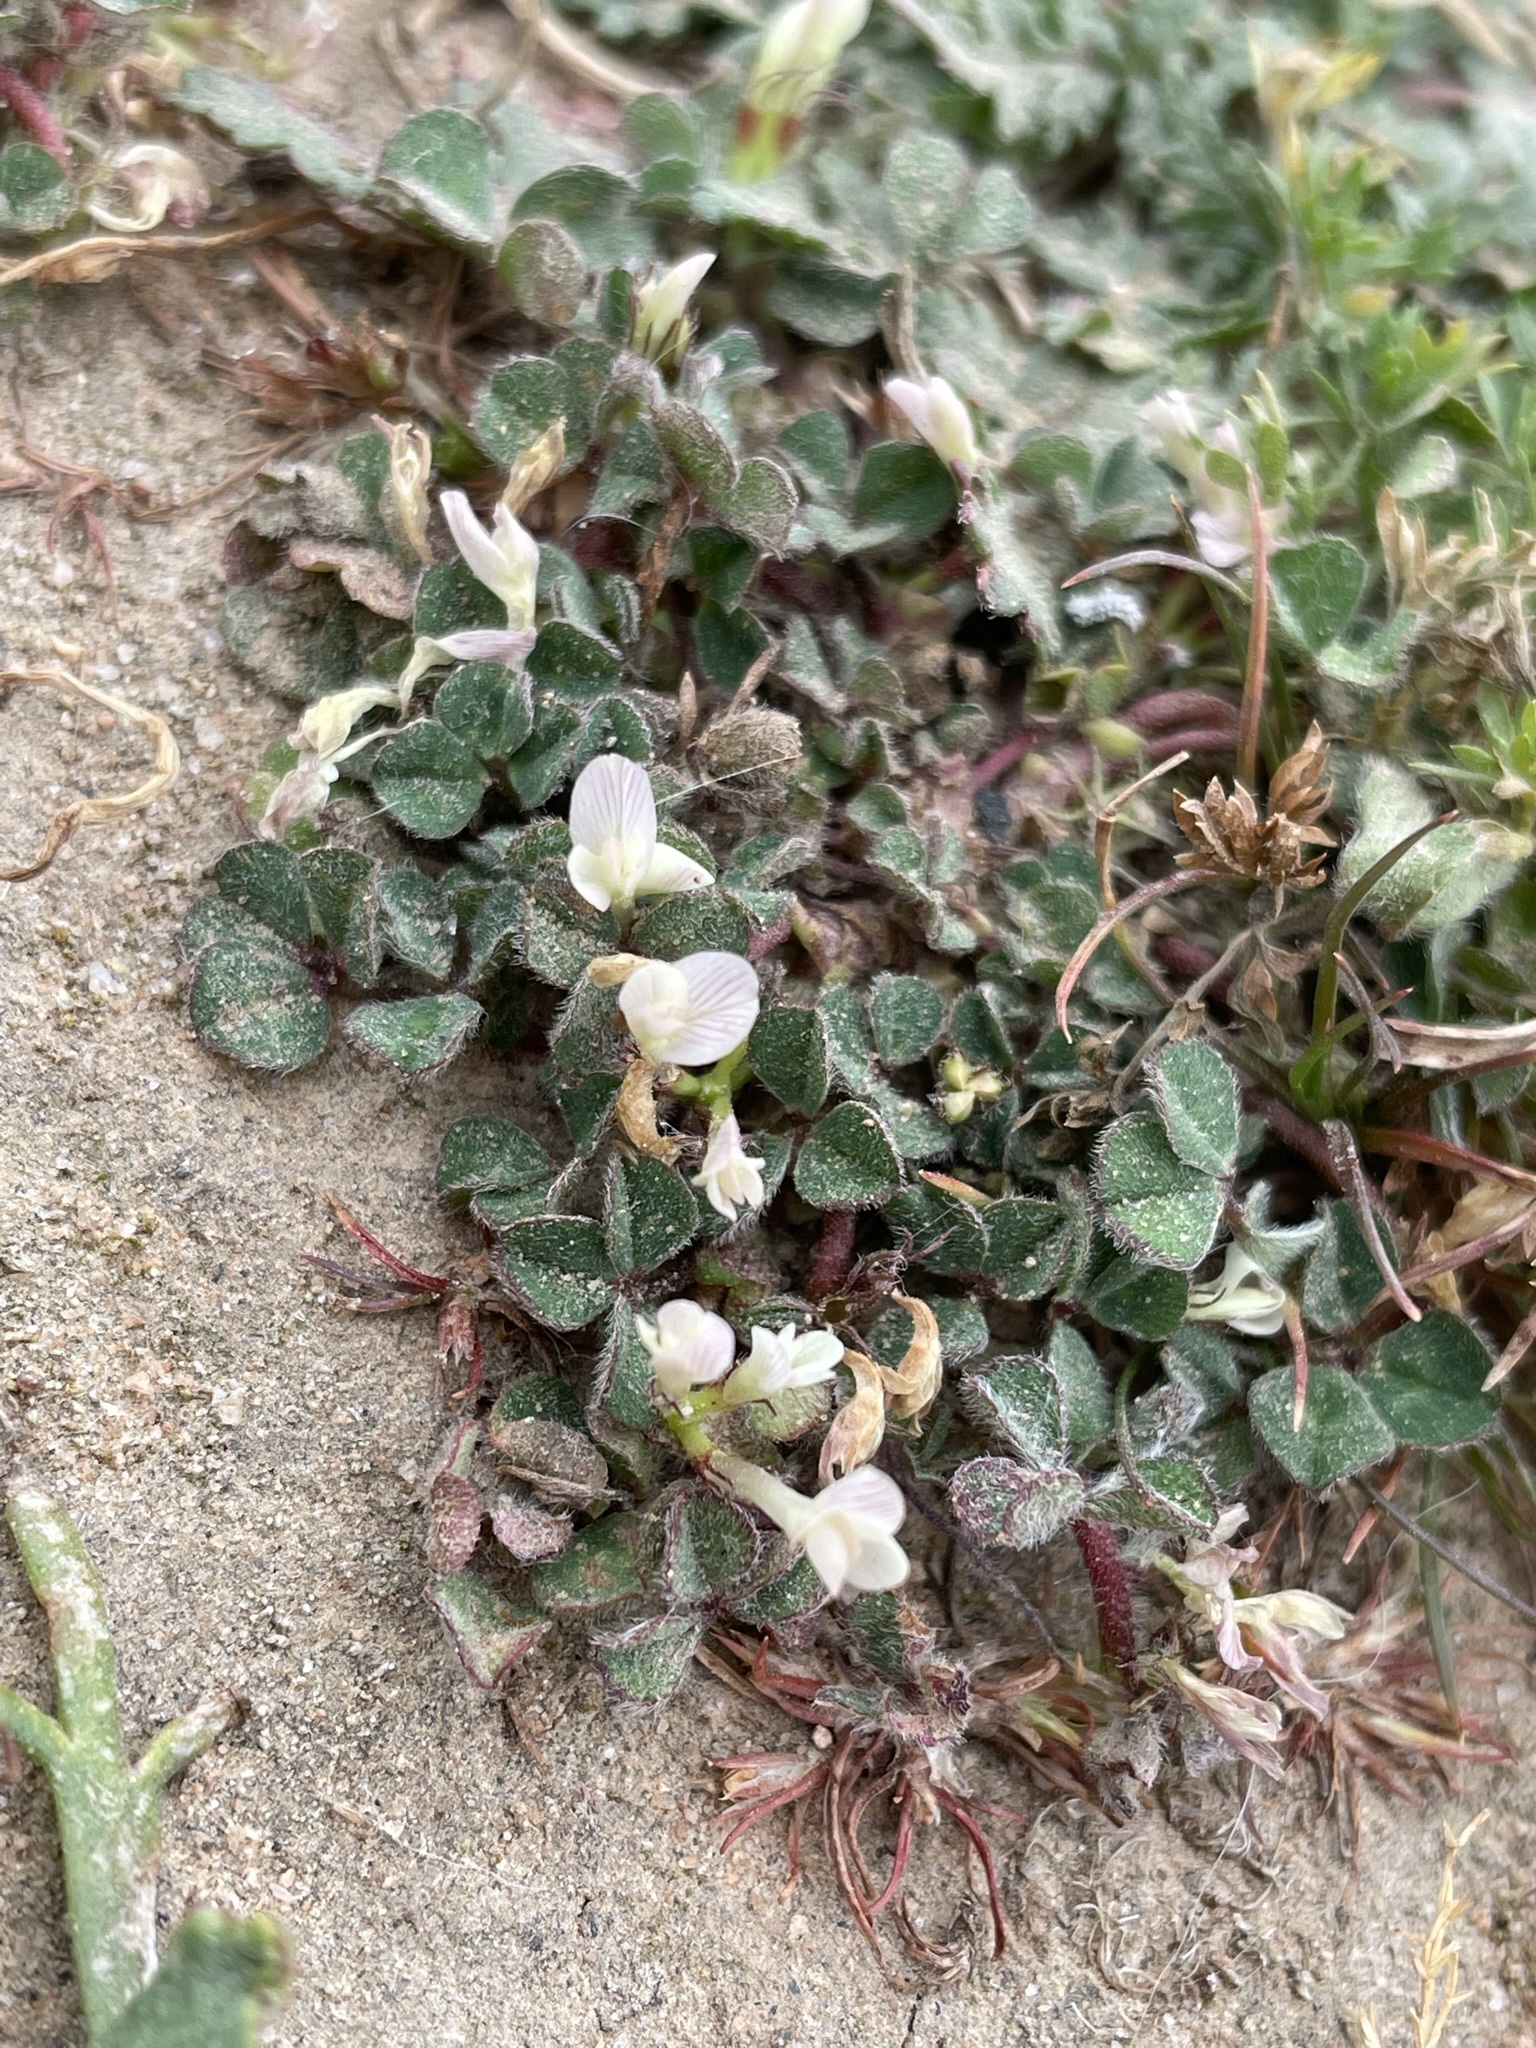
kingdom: Plantae
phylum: Tracheophyta
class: Magnoliopsida
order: Fabales
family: Fabaceae
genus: Trifolium
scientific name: Trifolium subterraneum
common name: Subterranean clover
